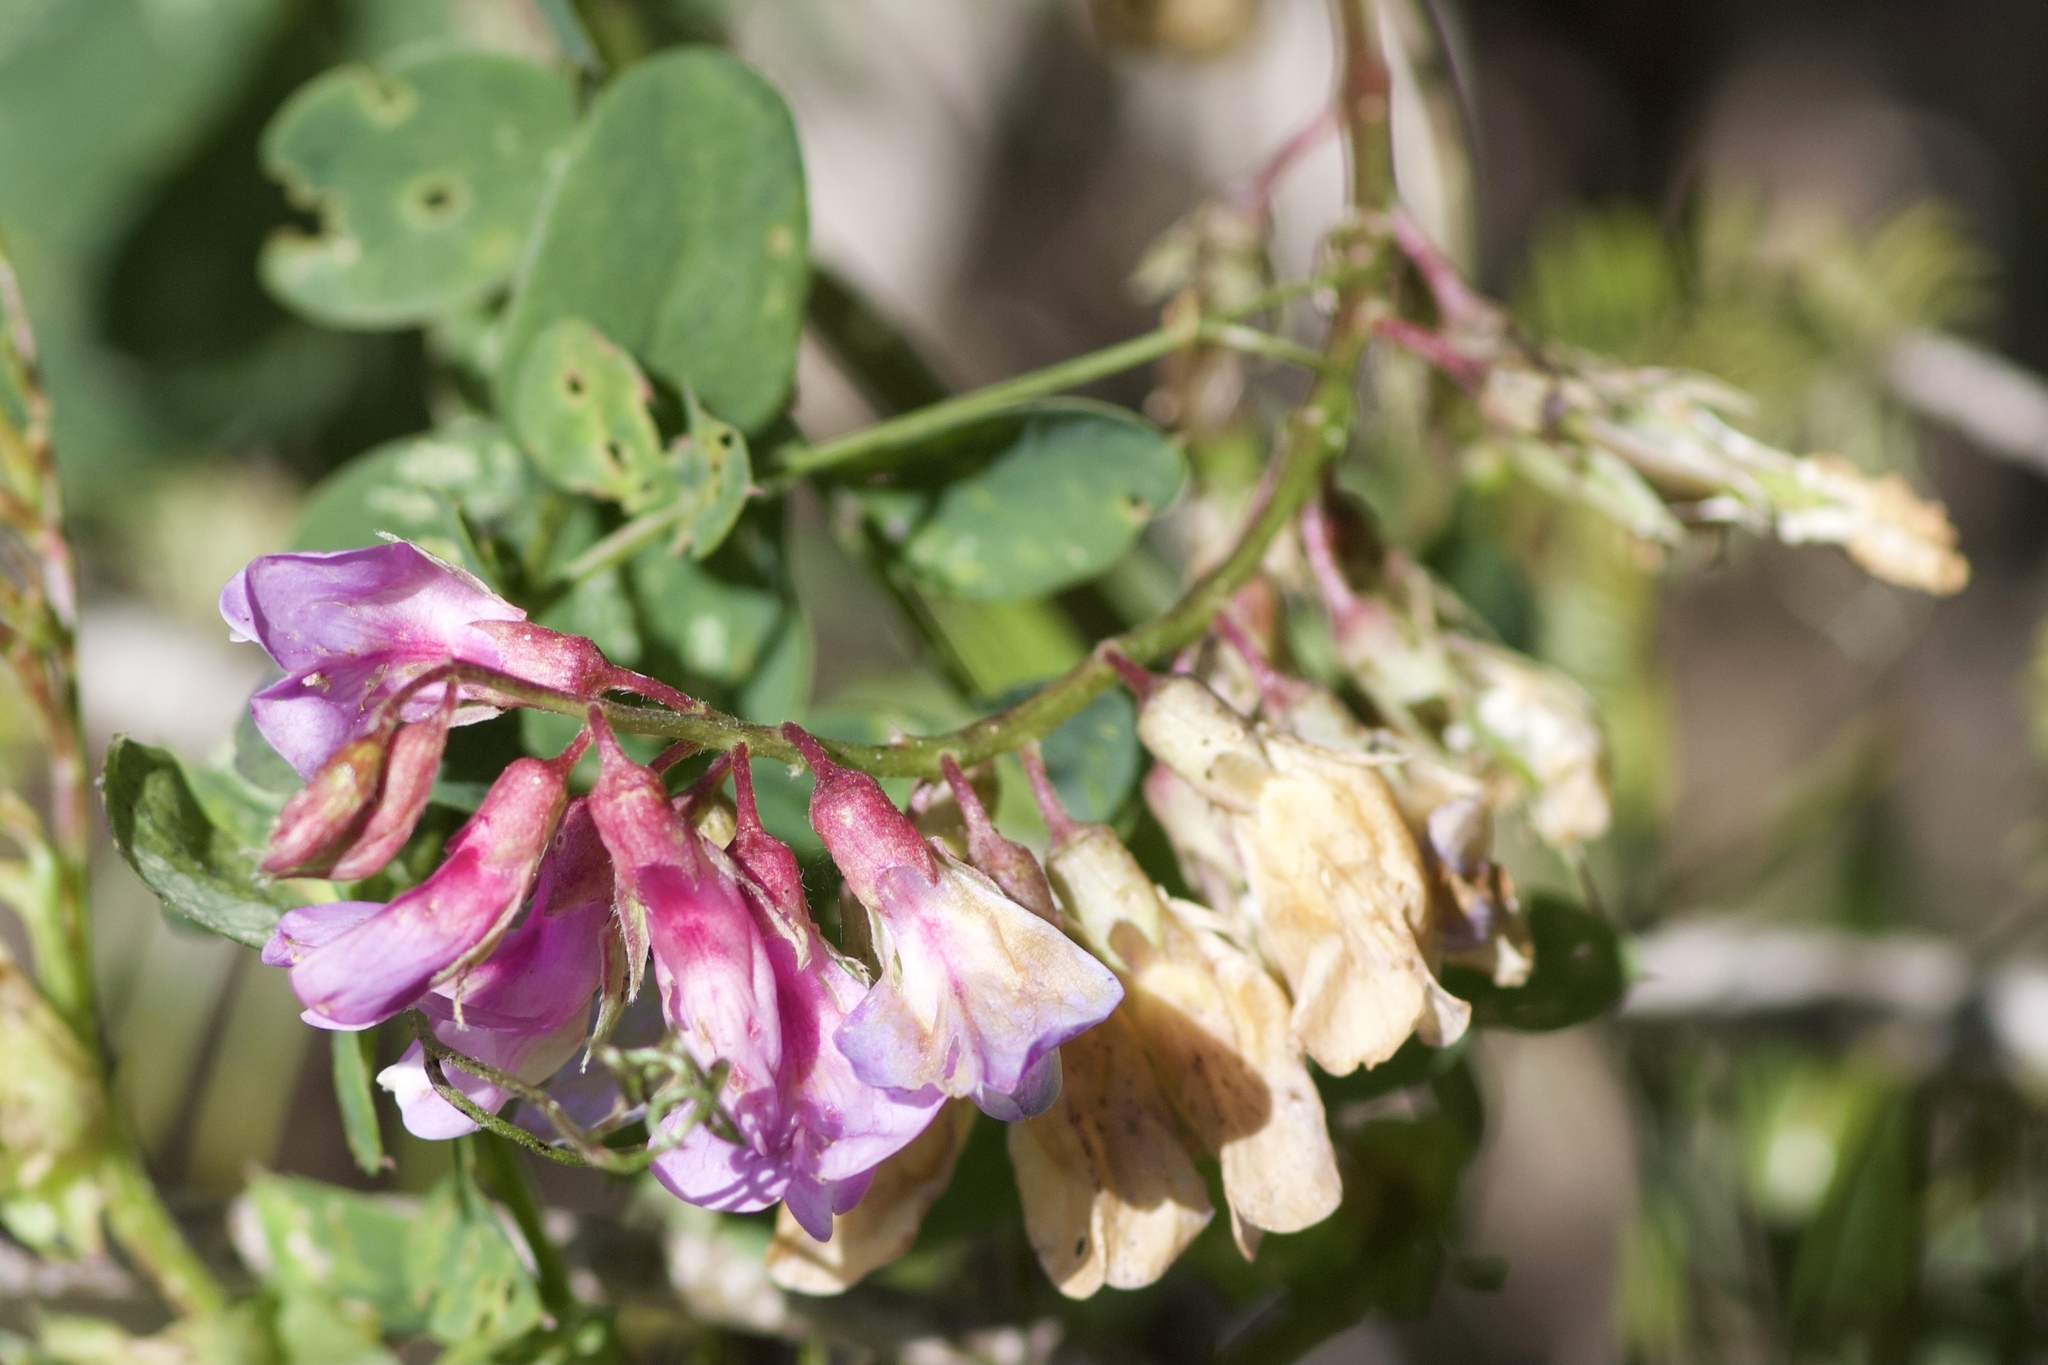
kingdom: Plantae
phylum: Tracheophyta
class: Magnoliopsida
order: Fabales
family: Fabaceae
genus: Lathyrus
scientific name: Lathyrus vestitus
